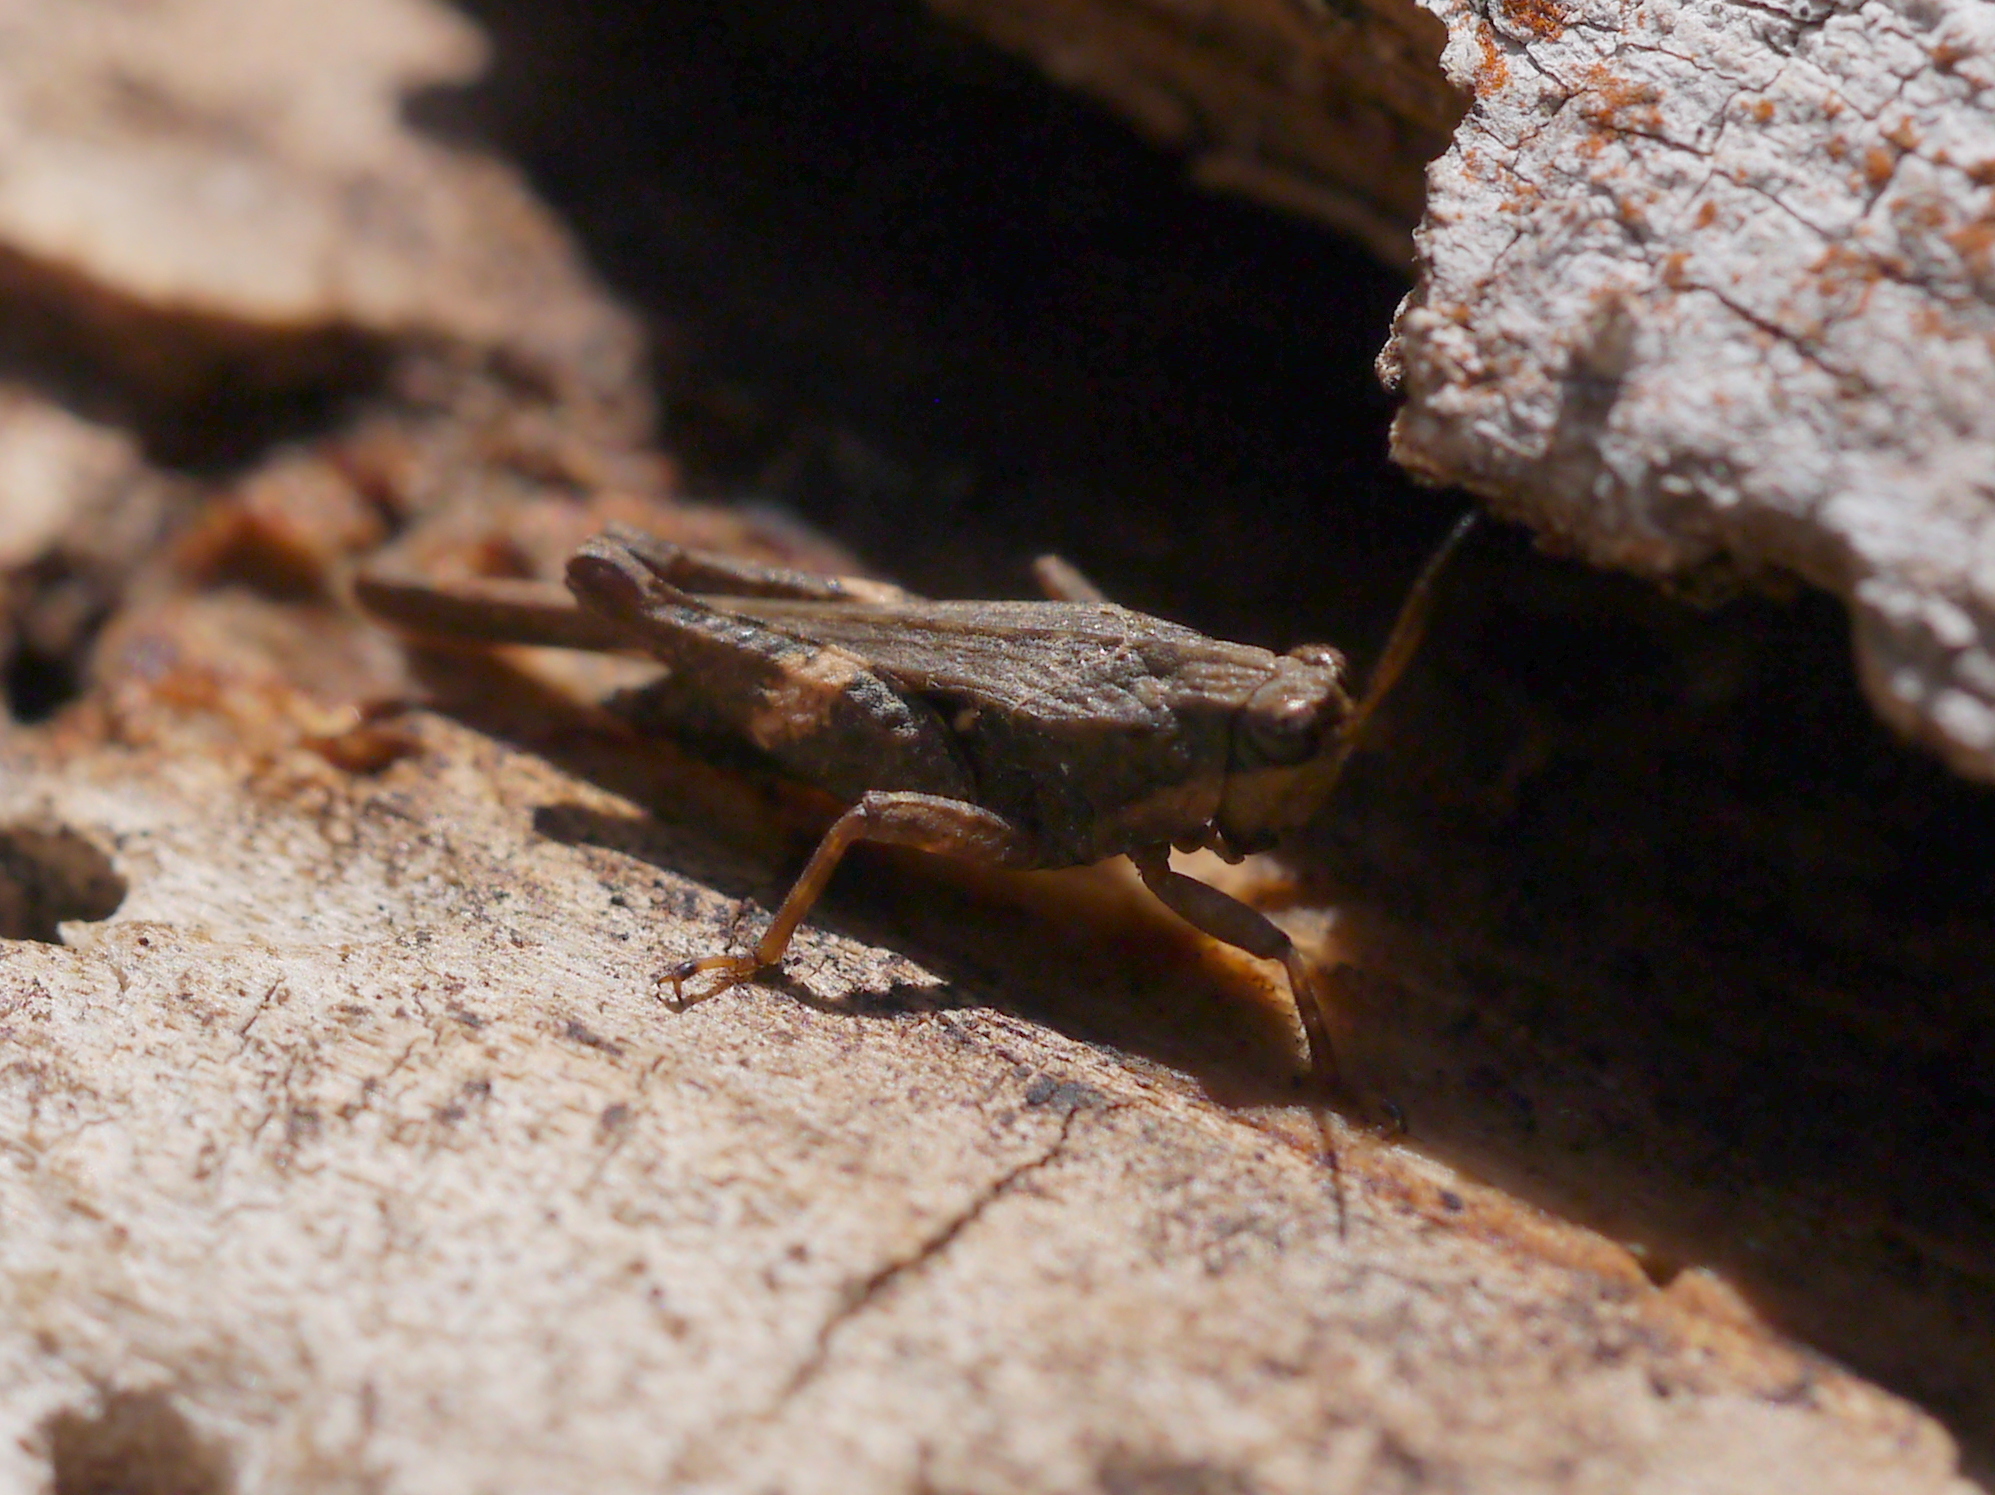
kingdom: Animalia
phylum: Arthropoda
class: Insecta
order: Orthoptera
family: Tetrigidae
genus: Tettigidea
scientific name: Tettigidea laterale
